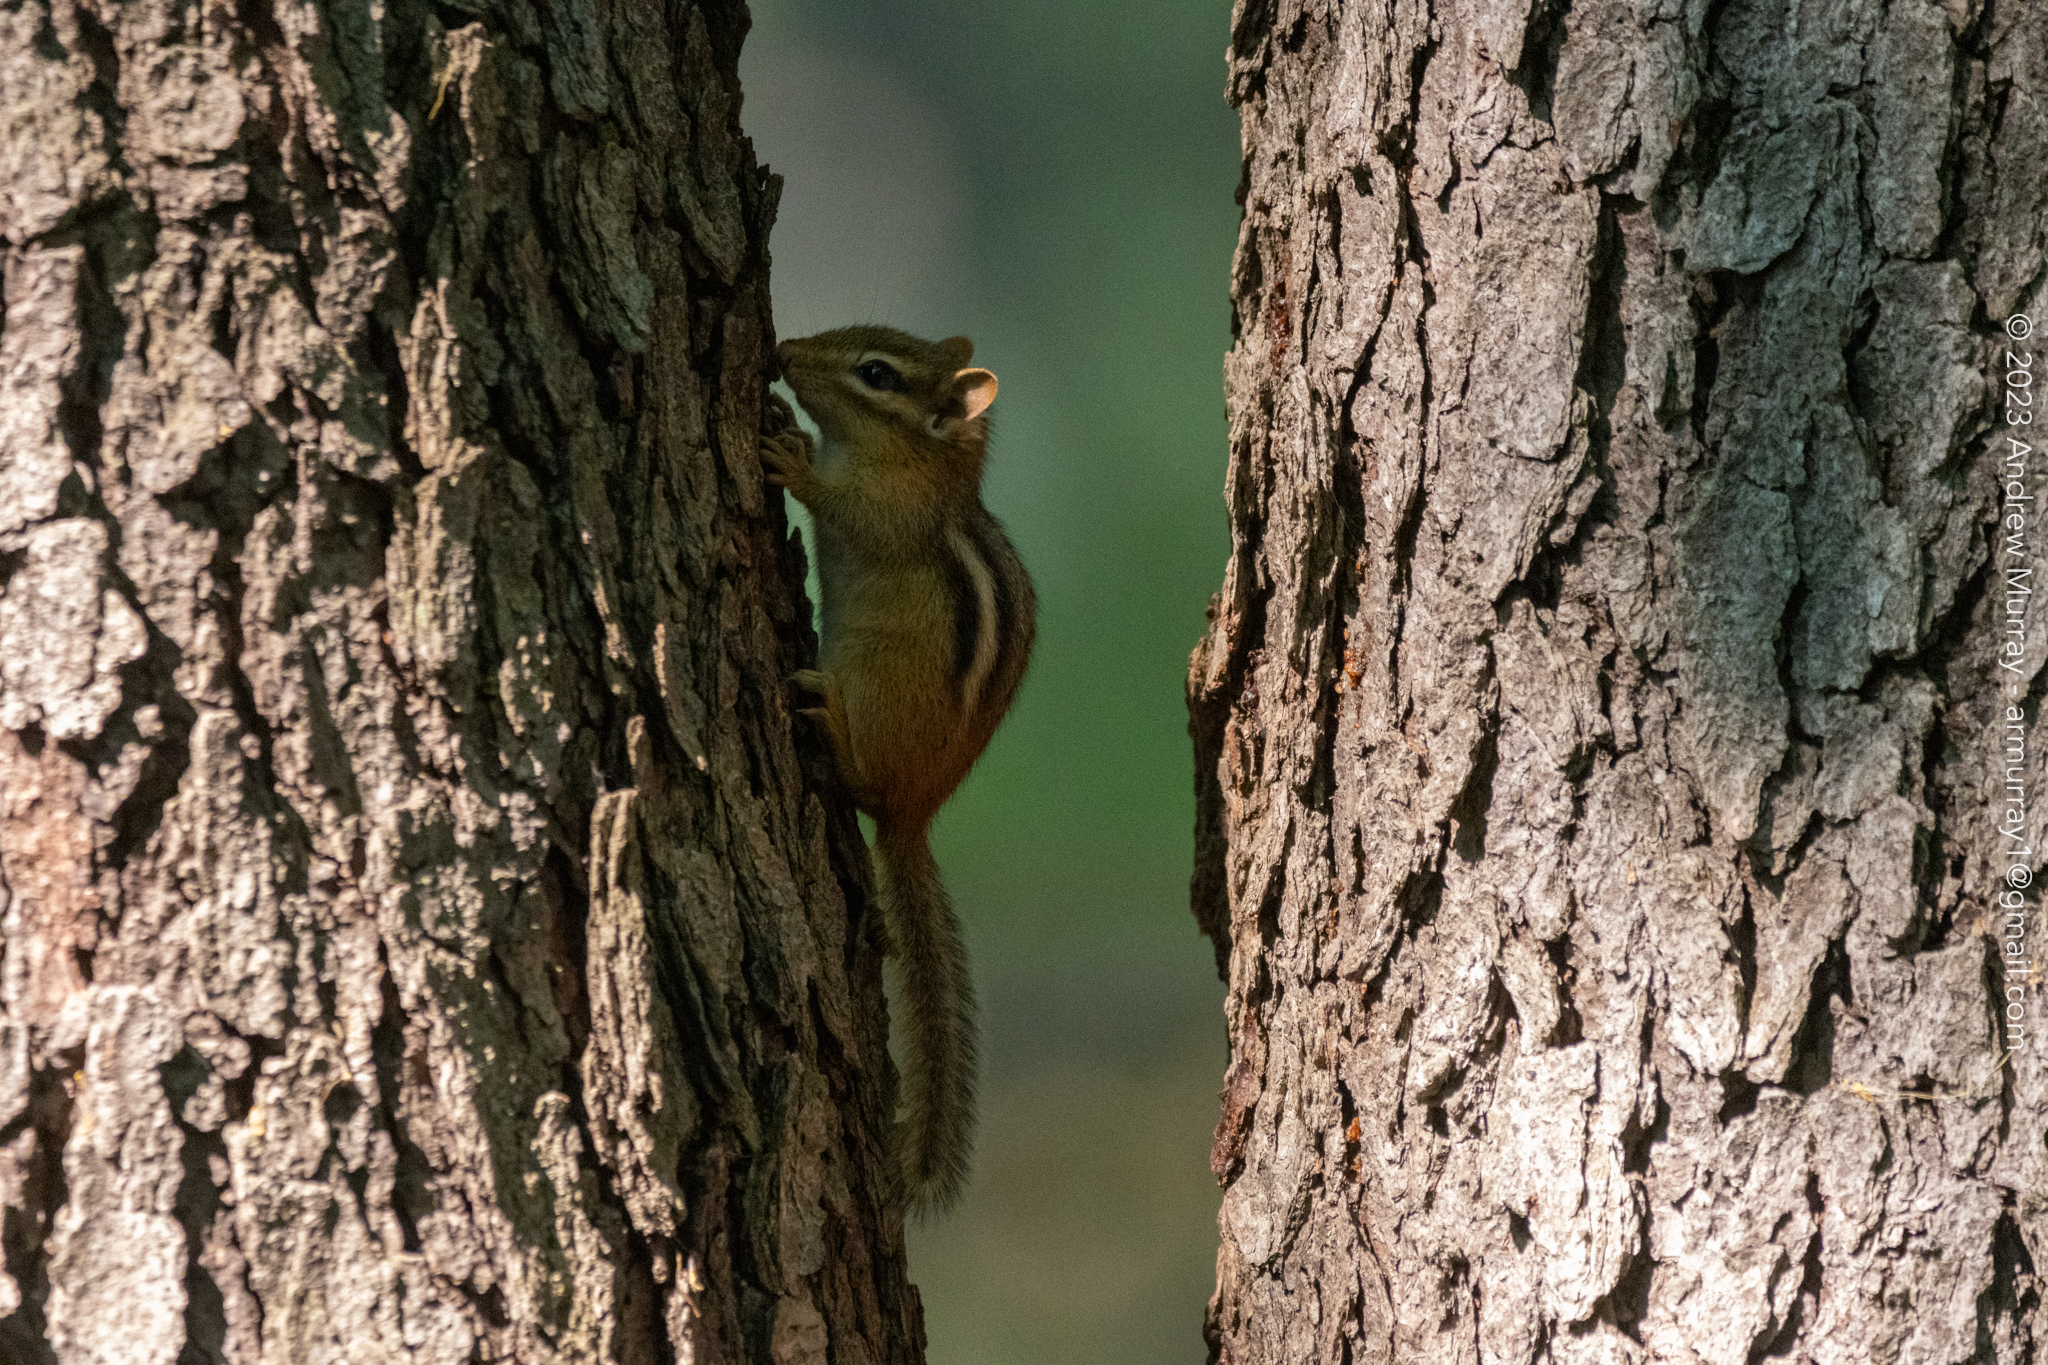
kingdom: Animalia
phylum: Chordata
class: Mammalia
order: Rodentia
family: Sciuridae
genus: Tamias
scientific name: Tamias striatus
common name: Eastern chipmunk
